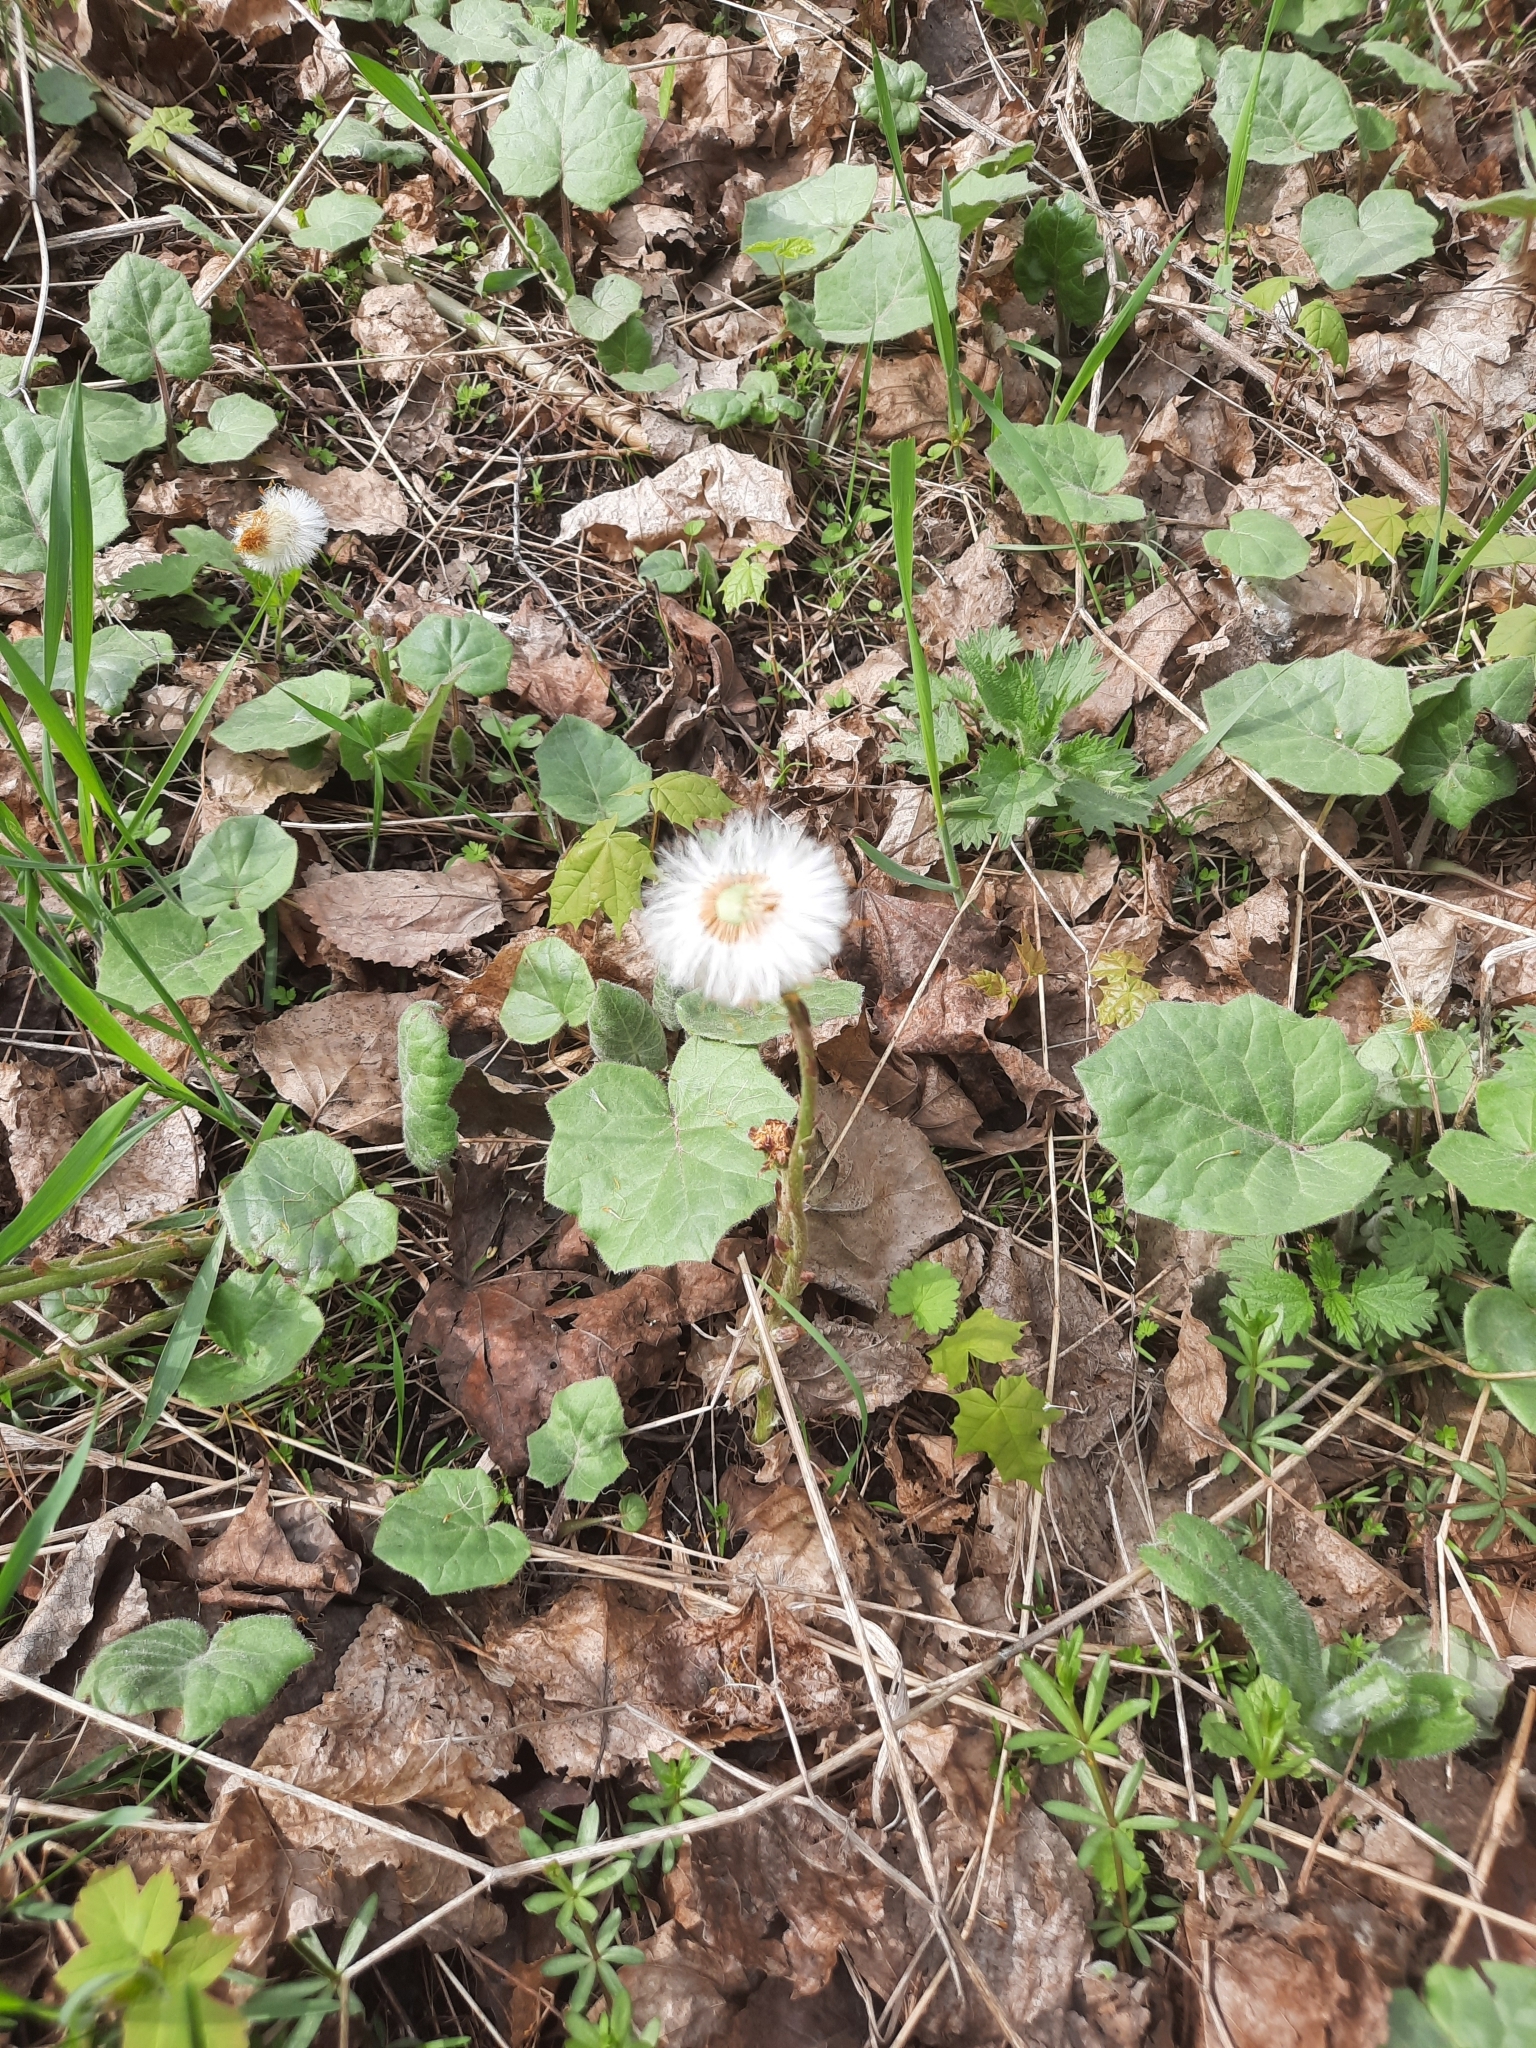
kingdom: Plantae
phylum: Tracheophyta
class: Magnoliopsida
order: Asterales
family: Asteraceae
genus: Tussilago
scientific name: Tussilago farfara
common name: Coltsfoot
